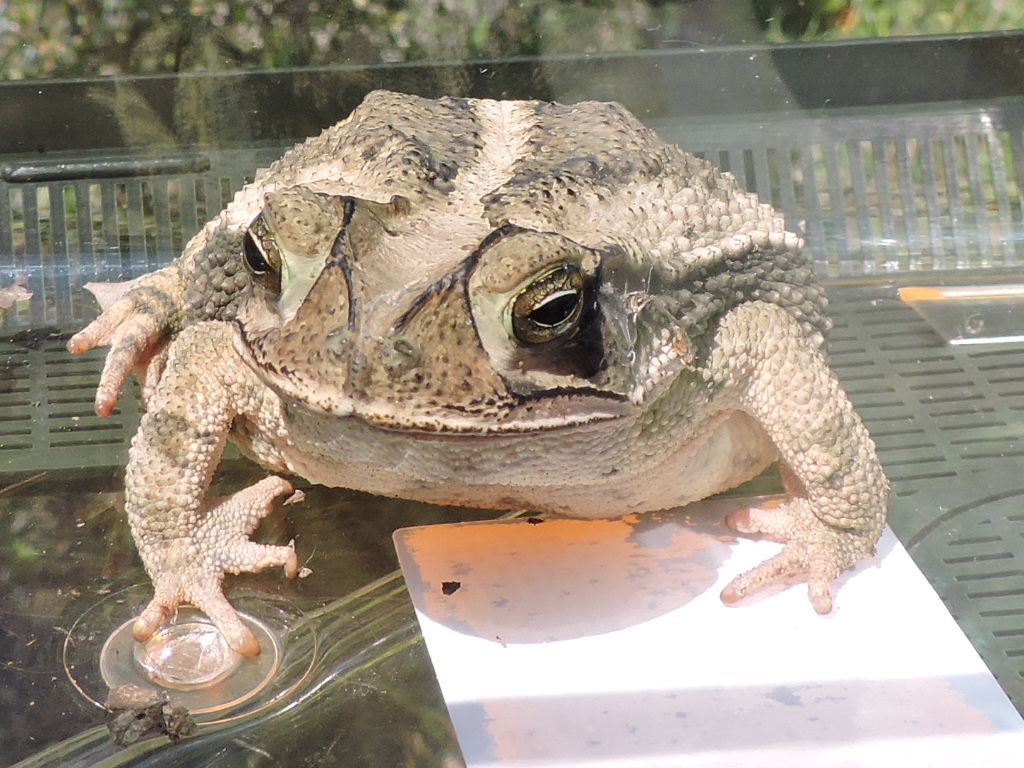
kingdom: Animalia
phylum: Chordata
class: Amphibia
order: Anura
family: Bufonidae
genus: Incilius
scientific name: Incilius nebulifer
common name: Gulf coast toad
